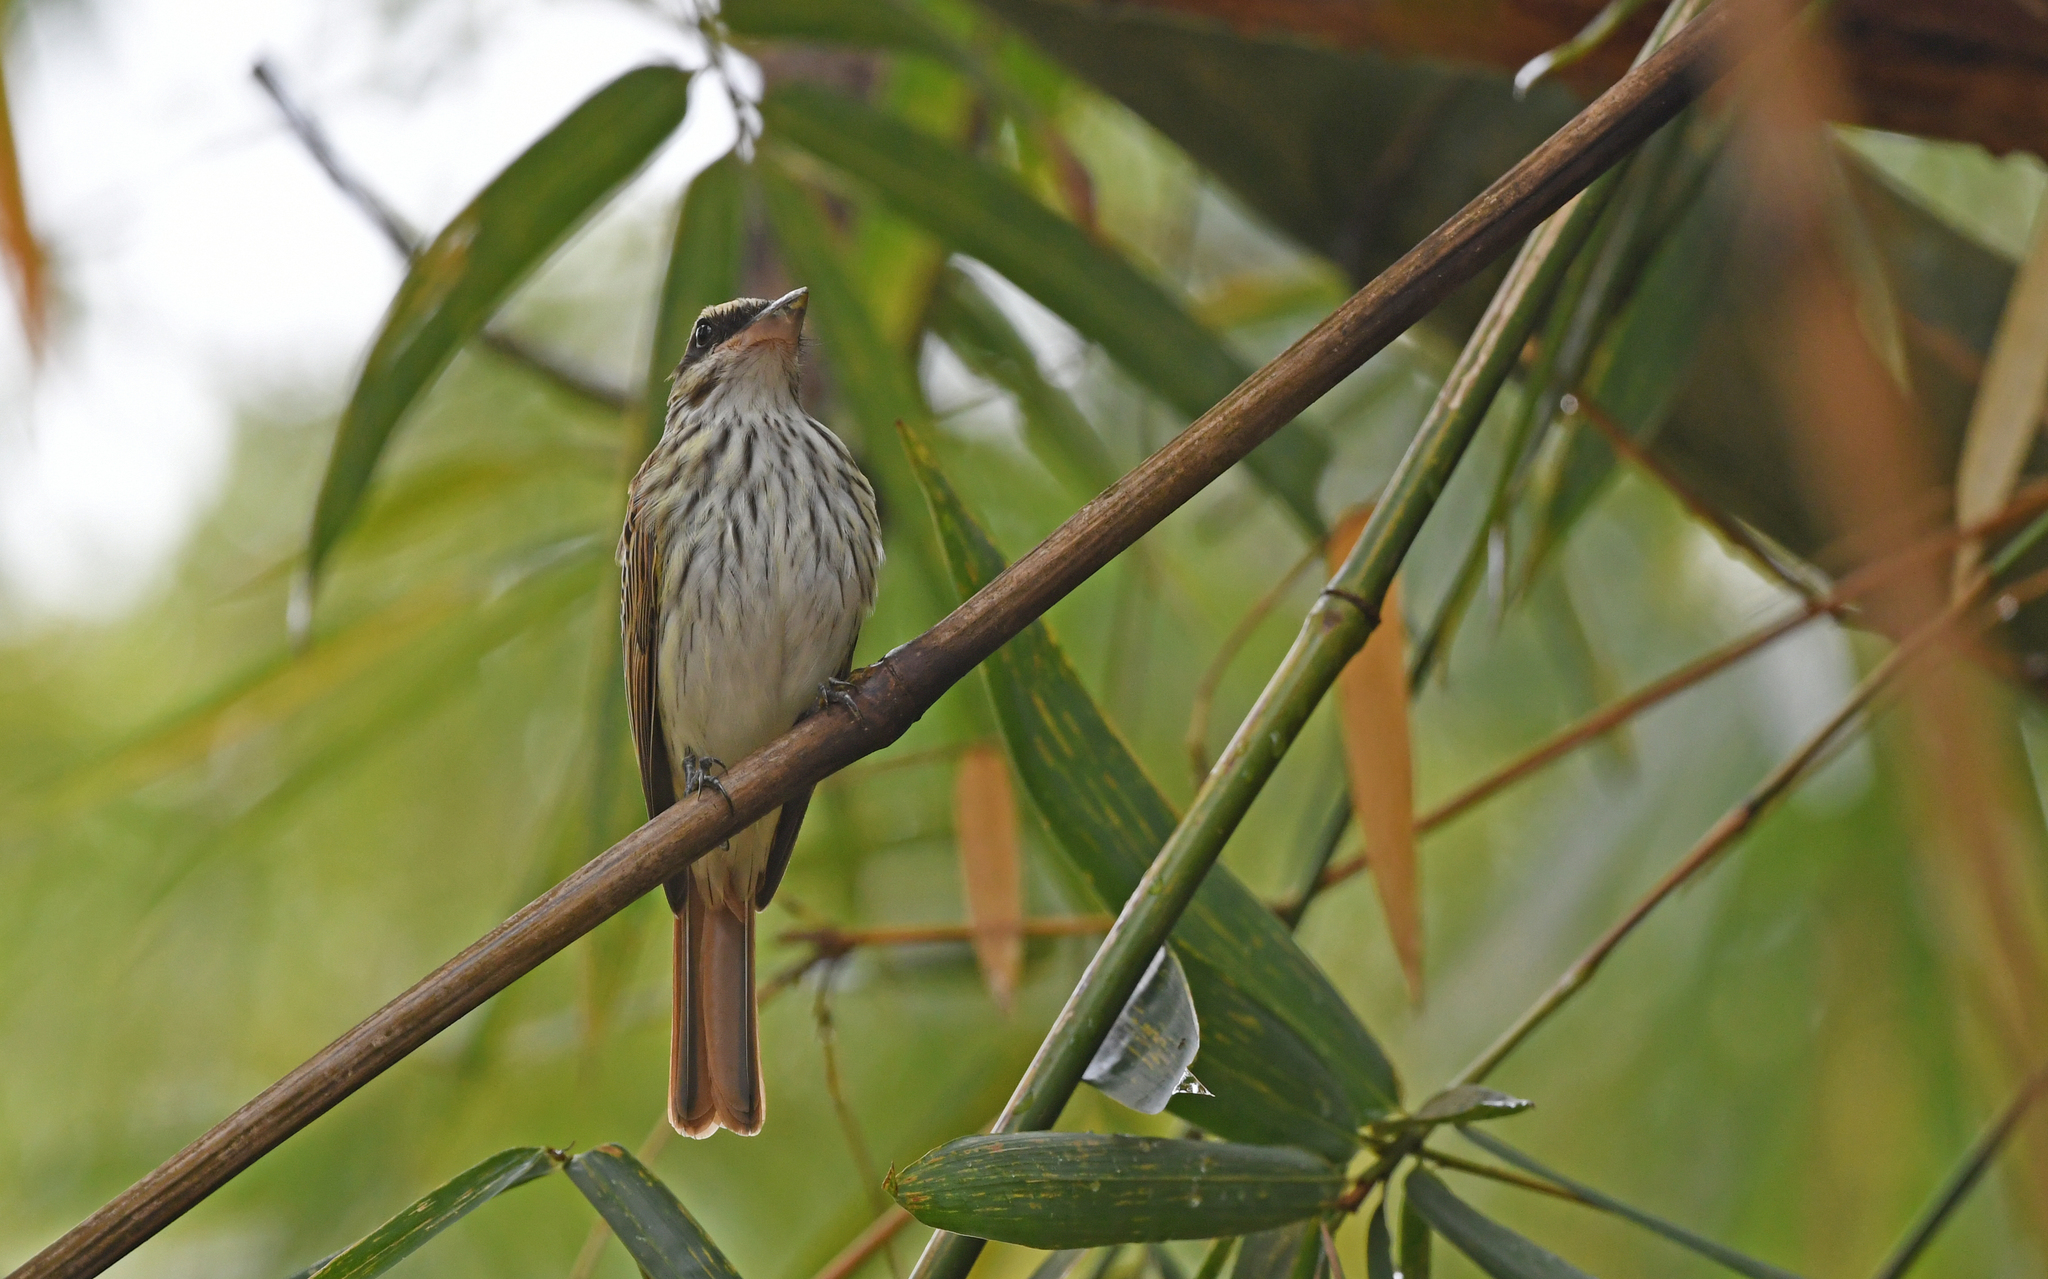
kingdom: Animalia
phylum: Chordata
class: Aves
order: Passeriformes
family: Tyrannidae
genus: Myiodynastes
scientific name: Myiodynastes maculatus
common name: Streaked flycatcher
